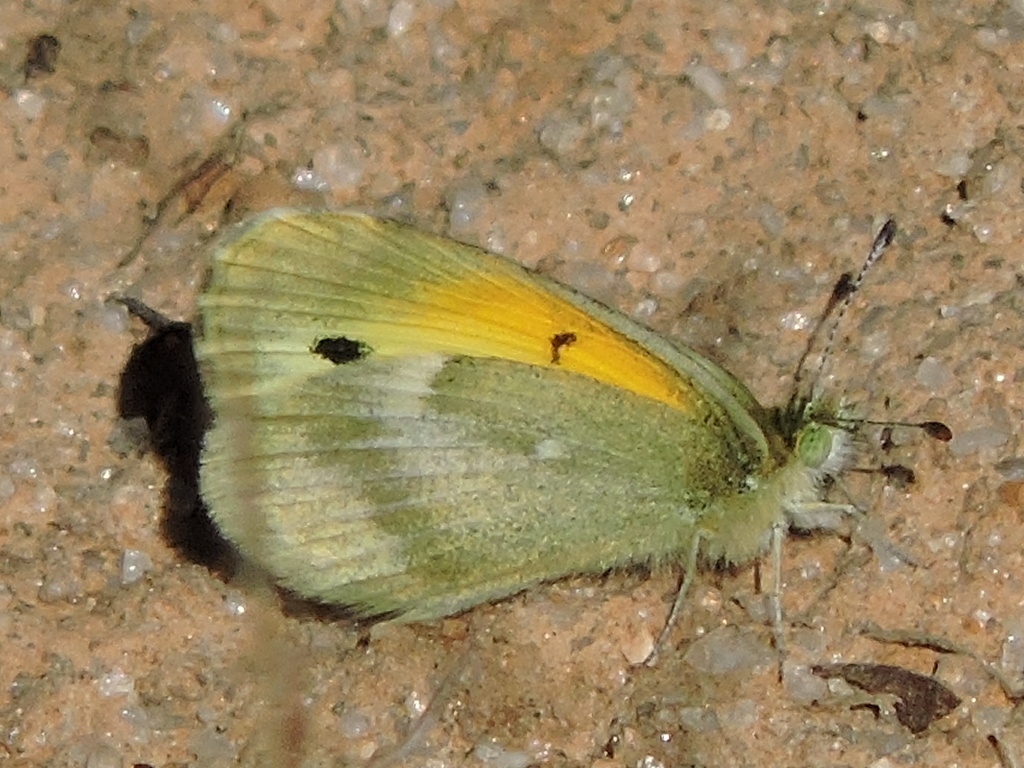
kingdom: Animalia
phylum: Arthropoda
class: Insecta
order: Lepidoptera
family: Pieridae
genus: Nathalis
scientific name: Nathalis iole
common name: Dainty sulphur
